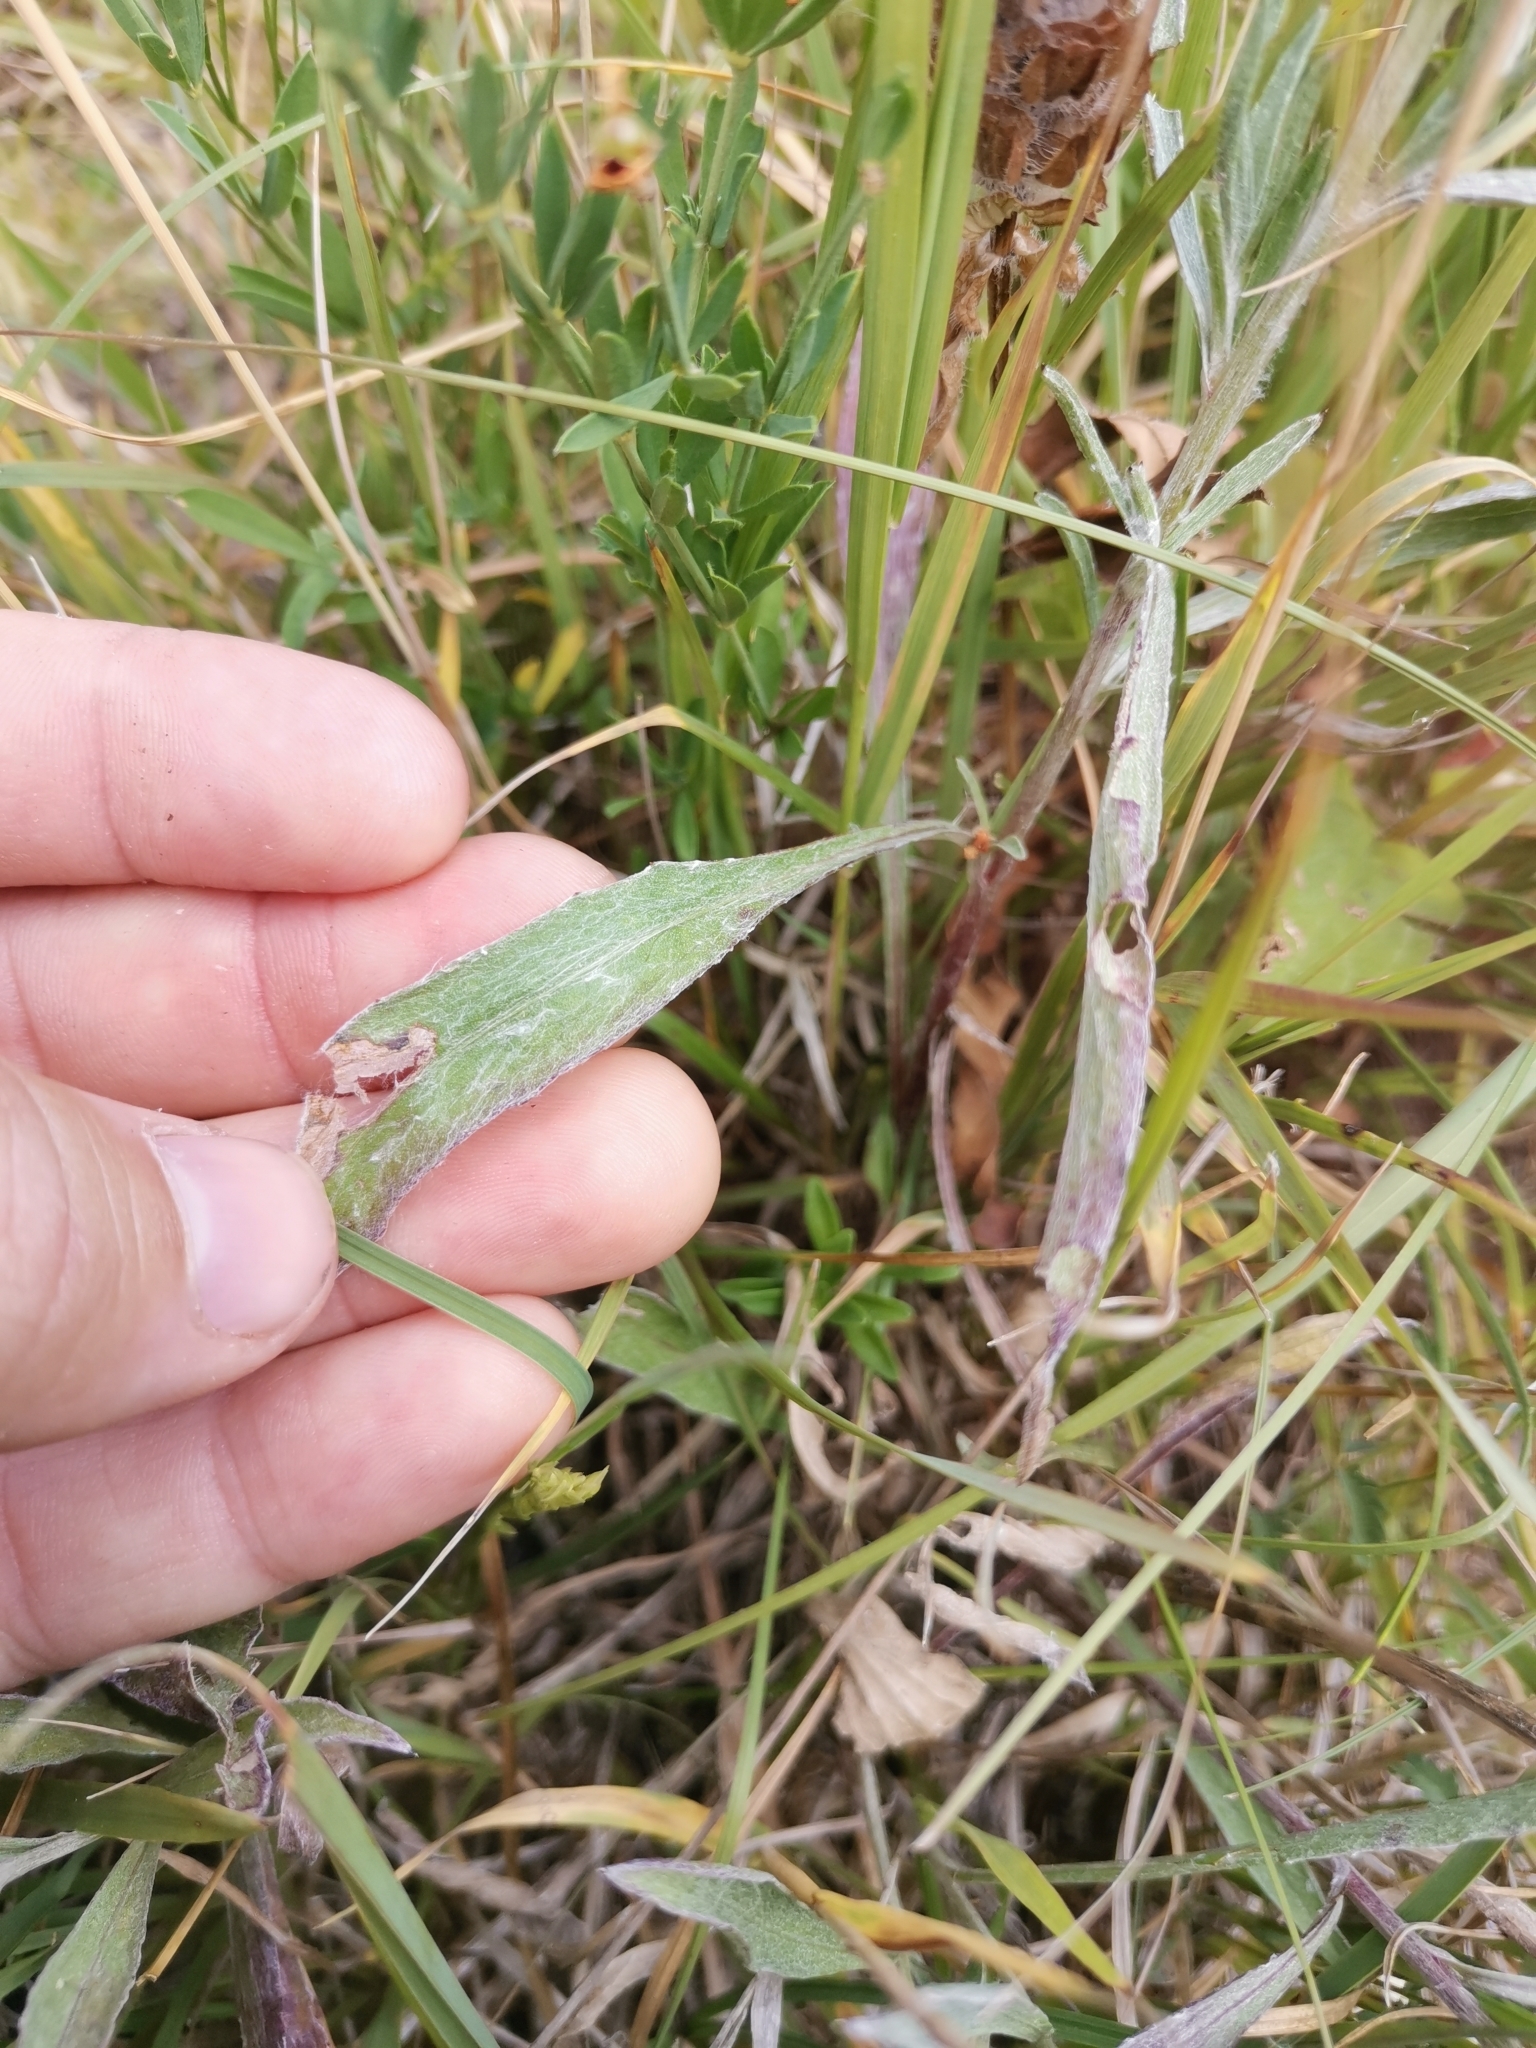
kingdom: Plantae
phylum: Tracheophyta
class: Magnoliopsida
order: Asterales
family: Asteraceae
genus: Centaurea
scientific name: Centaurea jacea
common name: Brown knapweed
